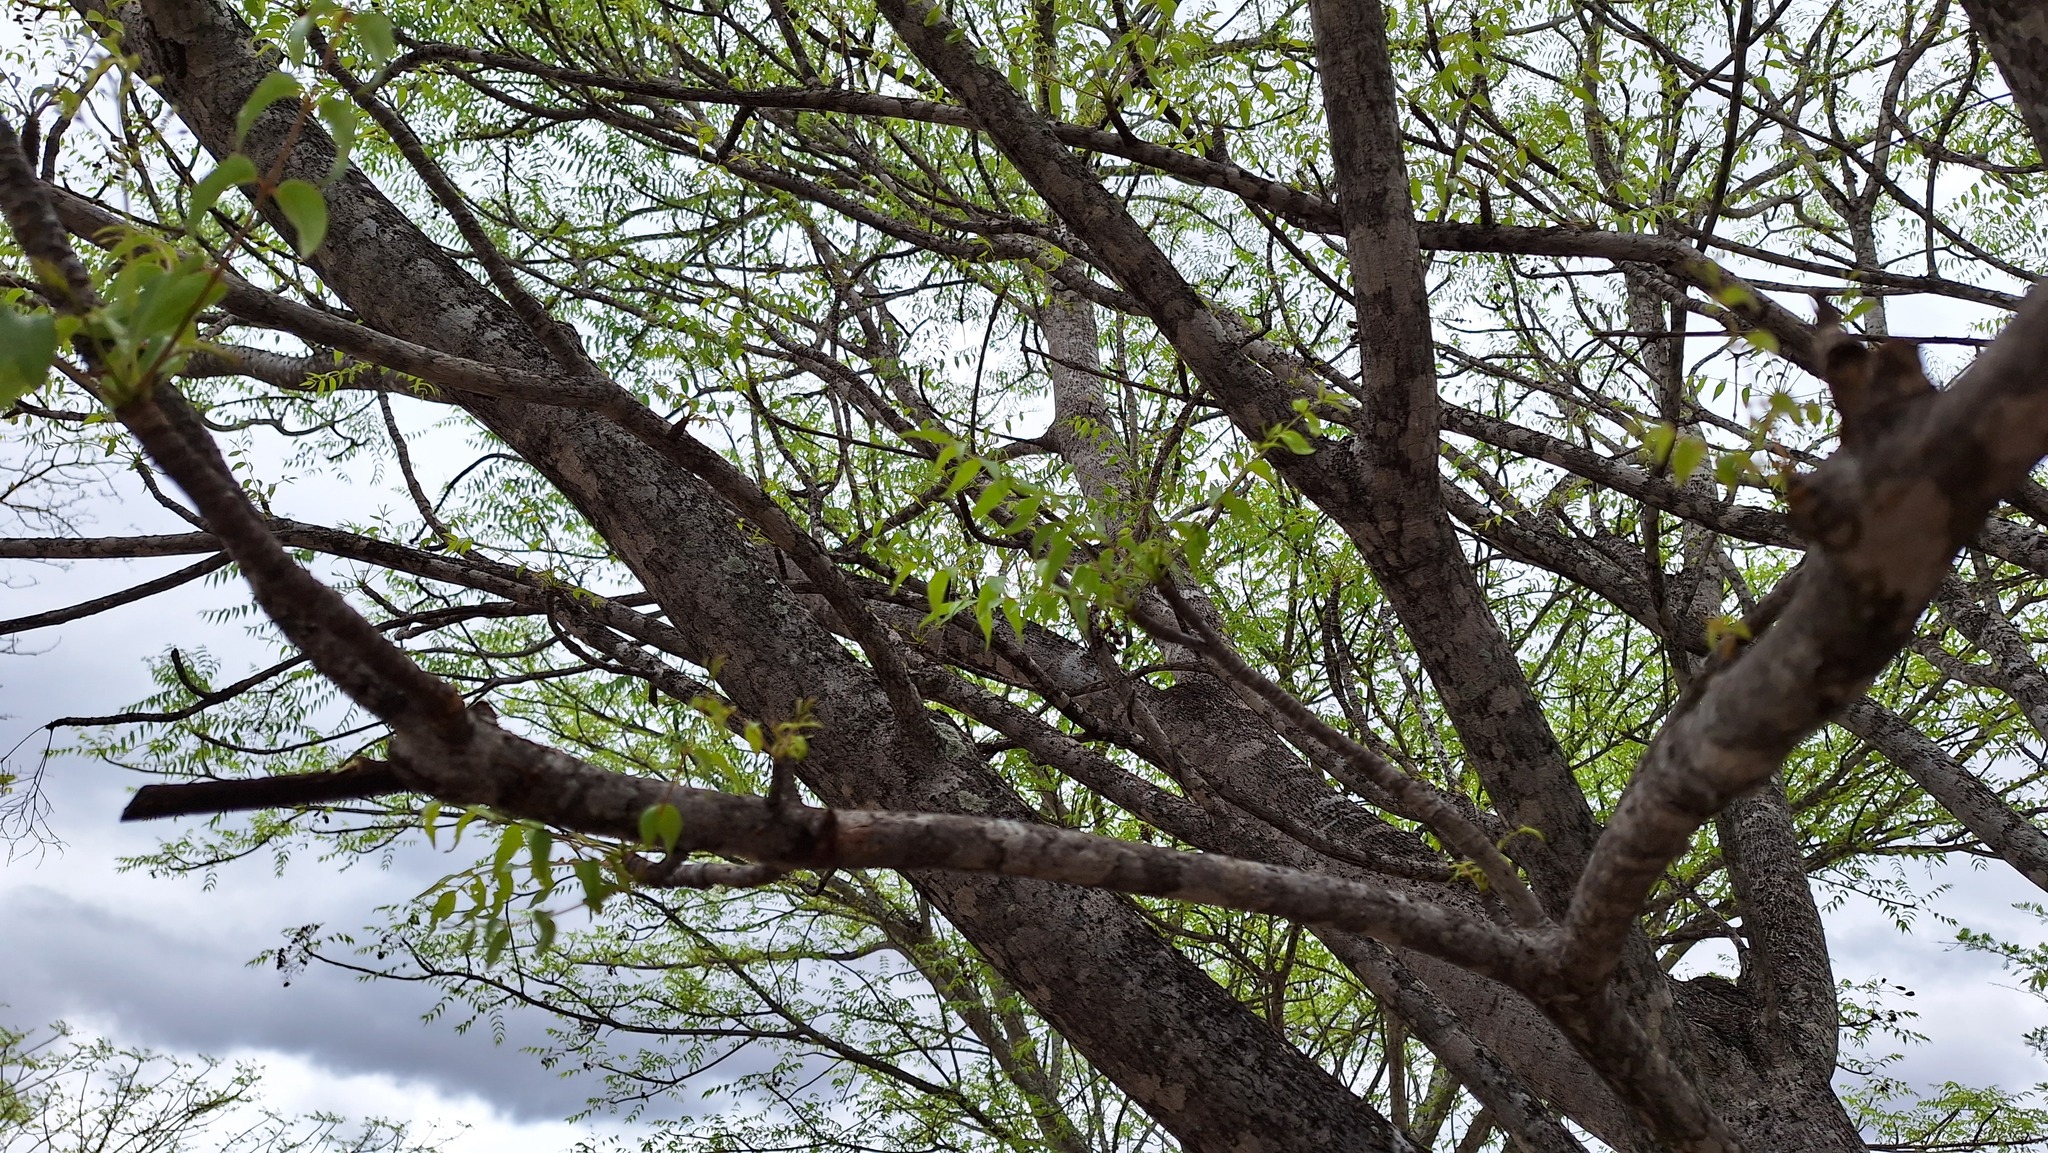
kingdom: Plantae
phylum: Tracheophyta
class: Magnoliopsida
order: Sapindales
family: Kirkiaceae
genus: Kirkia
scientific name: Kirkia acuminata
